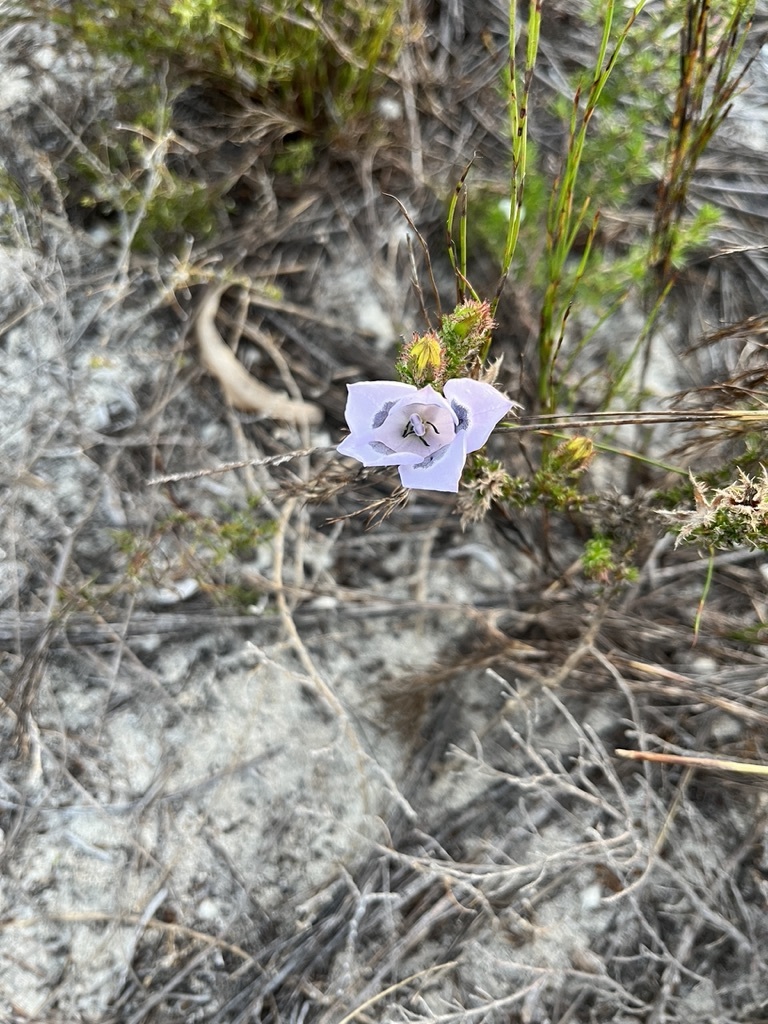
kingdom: Plantae
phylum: Tracheophyta
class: Magnoliopsida
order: Asterales
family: Campanulaceae
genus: Roella
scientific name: Roella incurva
